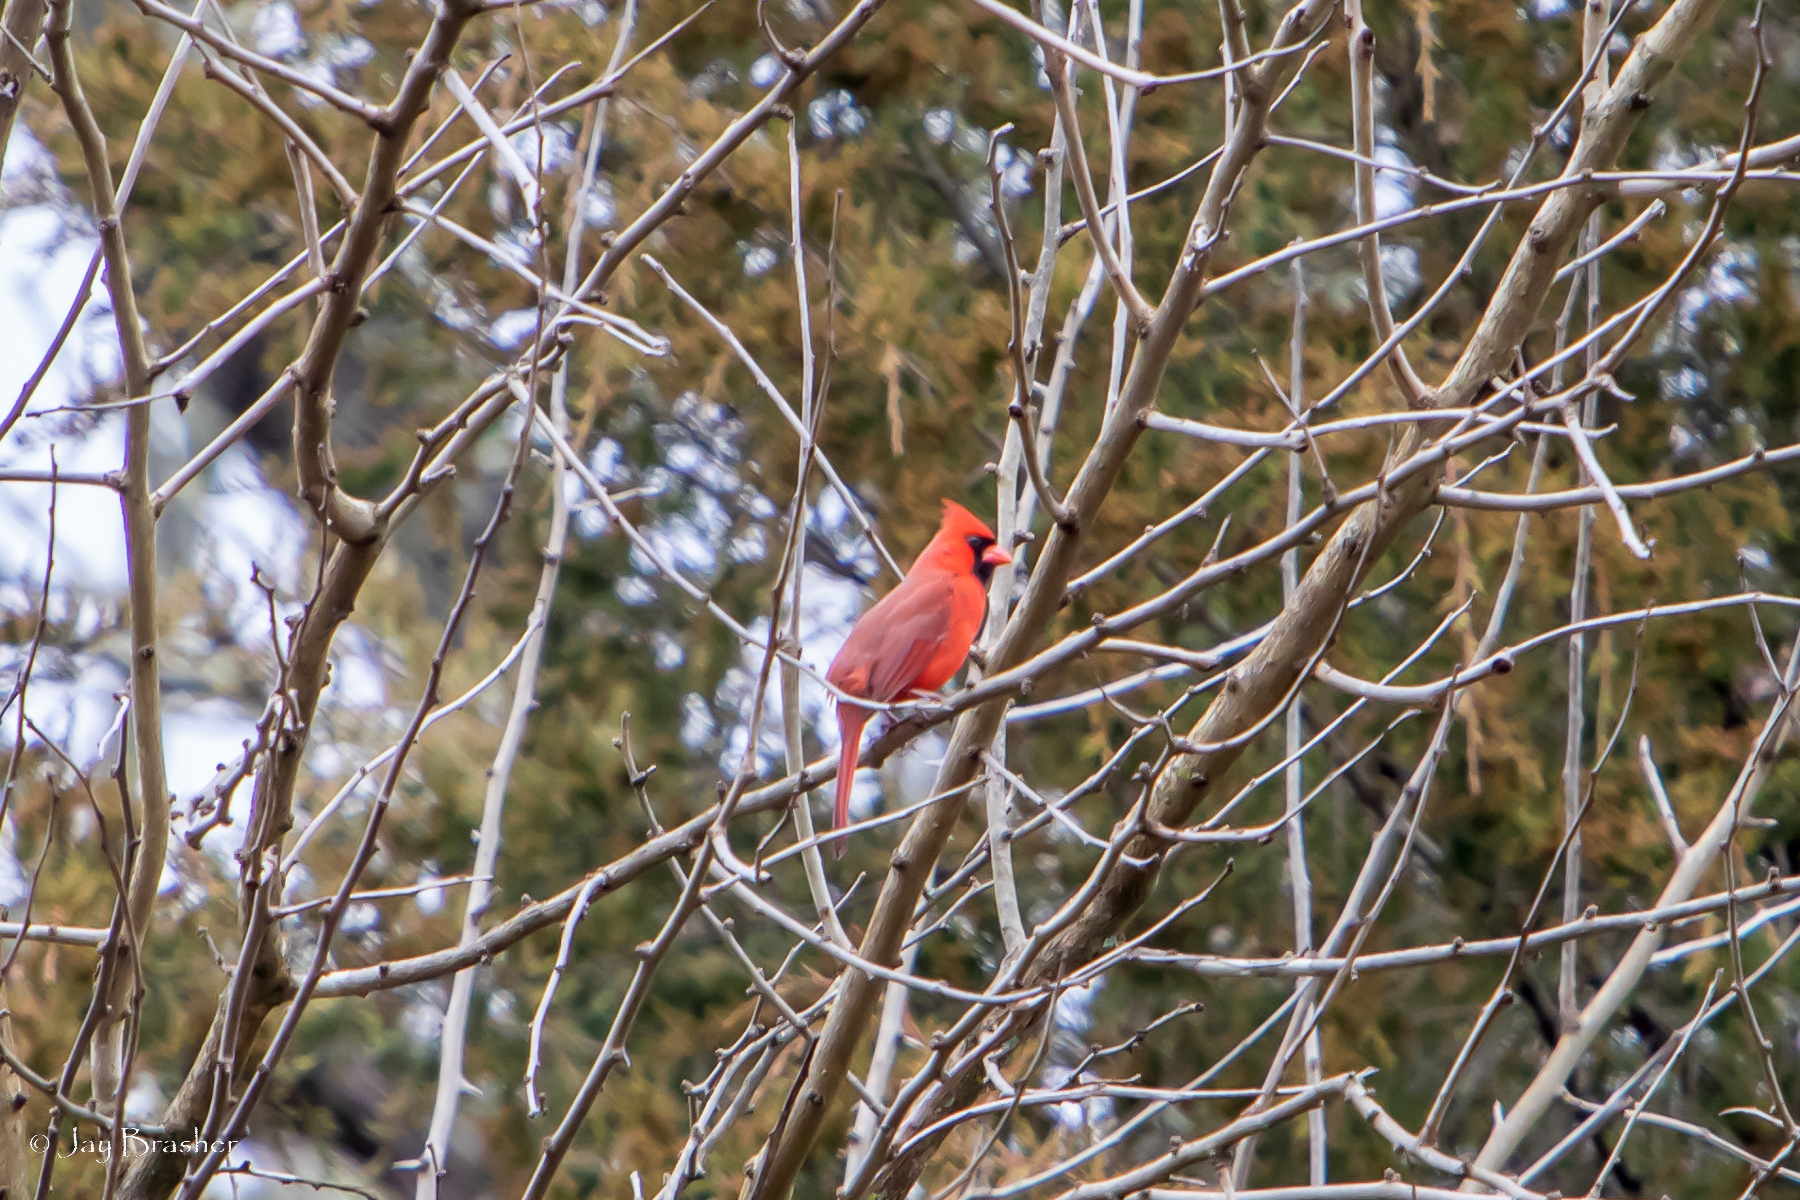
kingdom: Animalia
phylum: Chordata
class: Aves
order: Passeriformes
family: Cardinalidae
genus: Cardinalis
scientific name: Cardinalis cardinalis
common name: Northern cardinal
